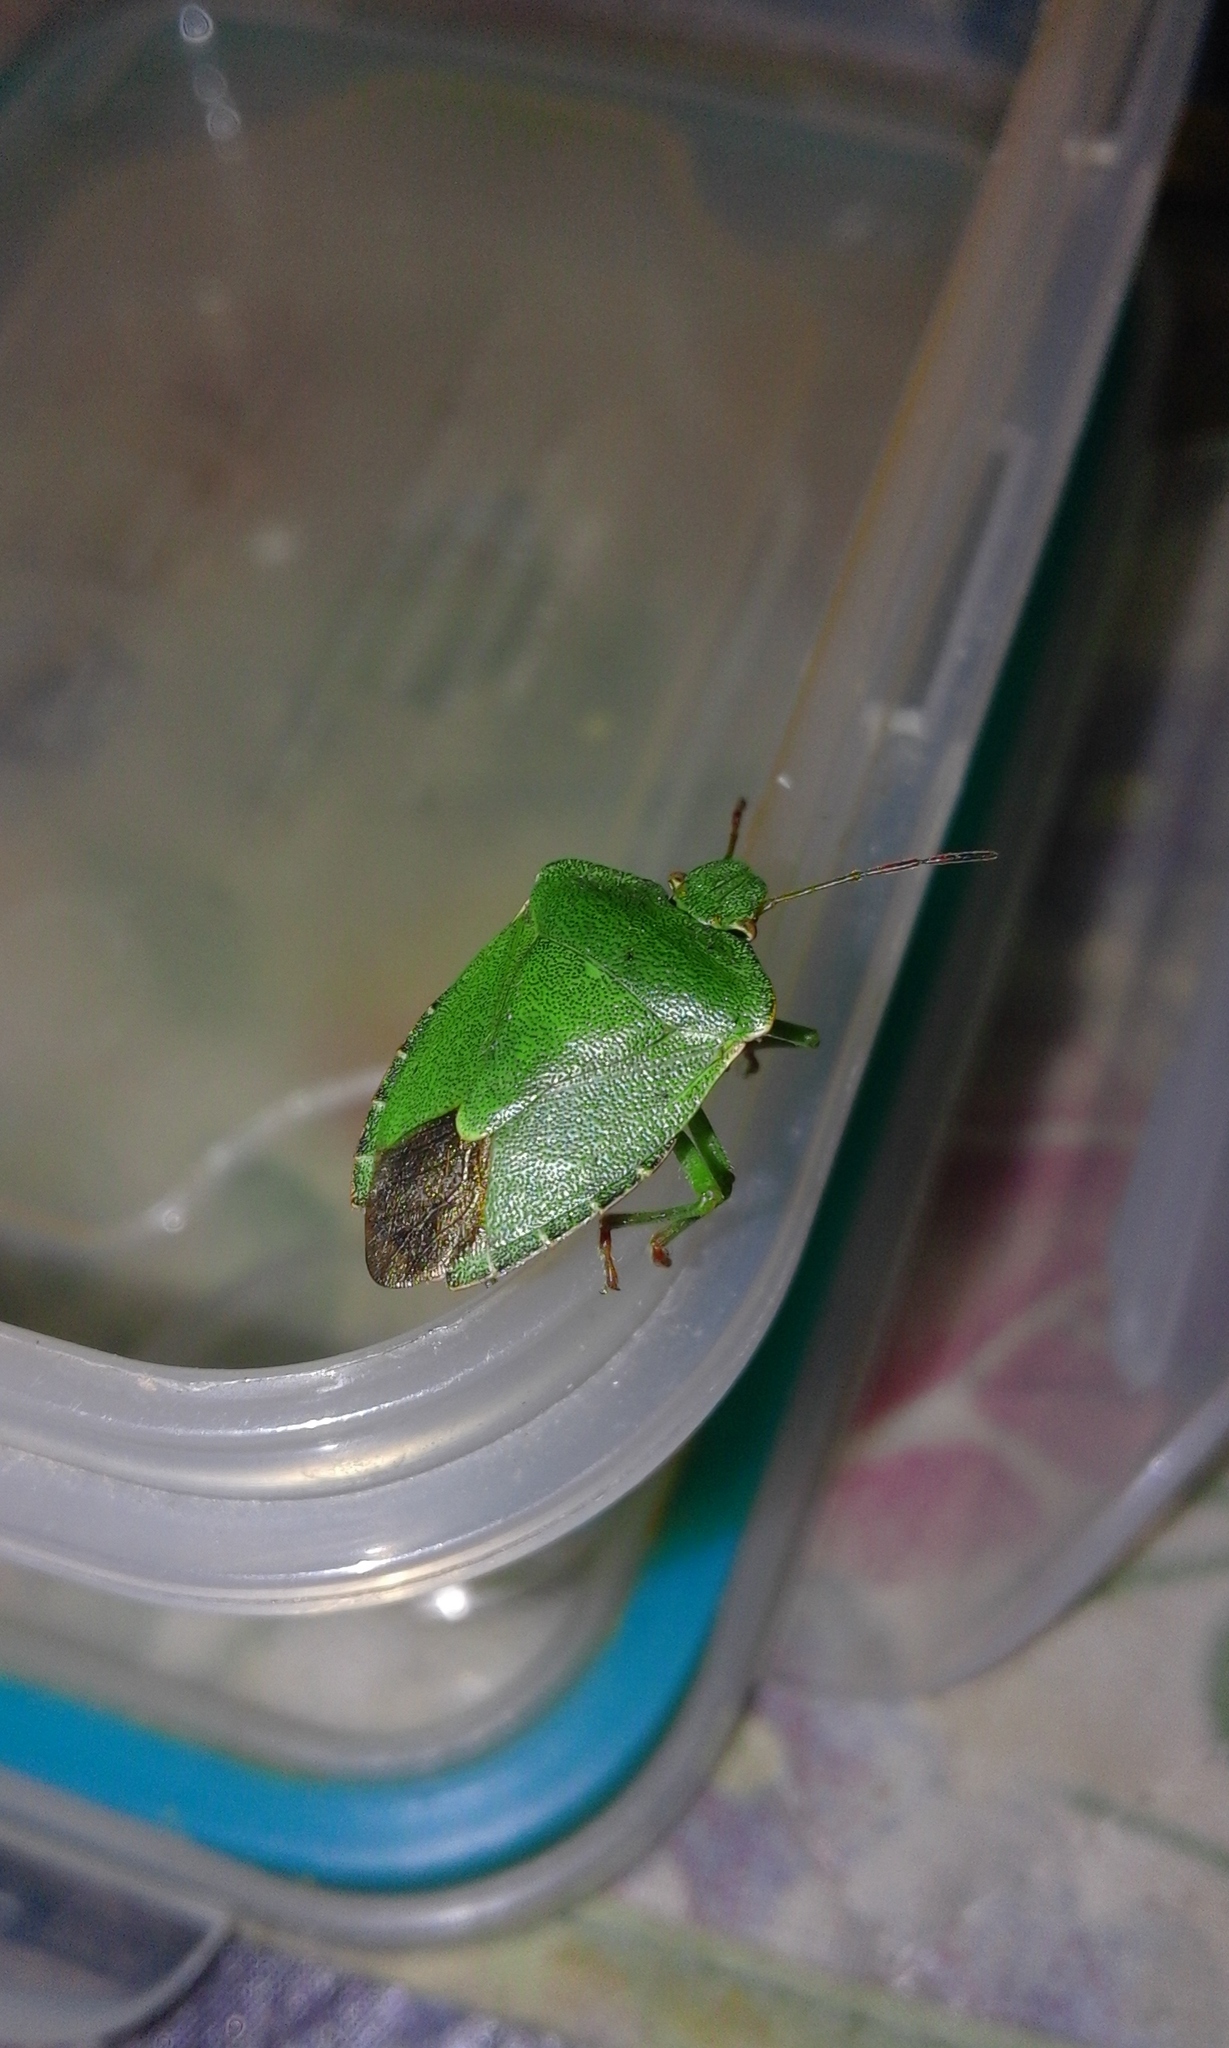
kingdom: Animalia
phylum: Arthropoda
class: Insecta
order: Hemiptera
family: Pentatomidae
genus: Palomena
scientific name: Palomena prasina
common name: Green shieldbug
